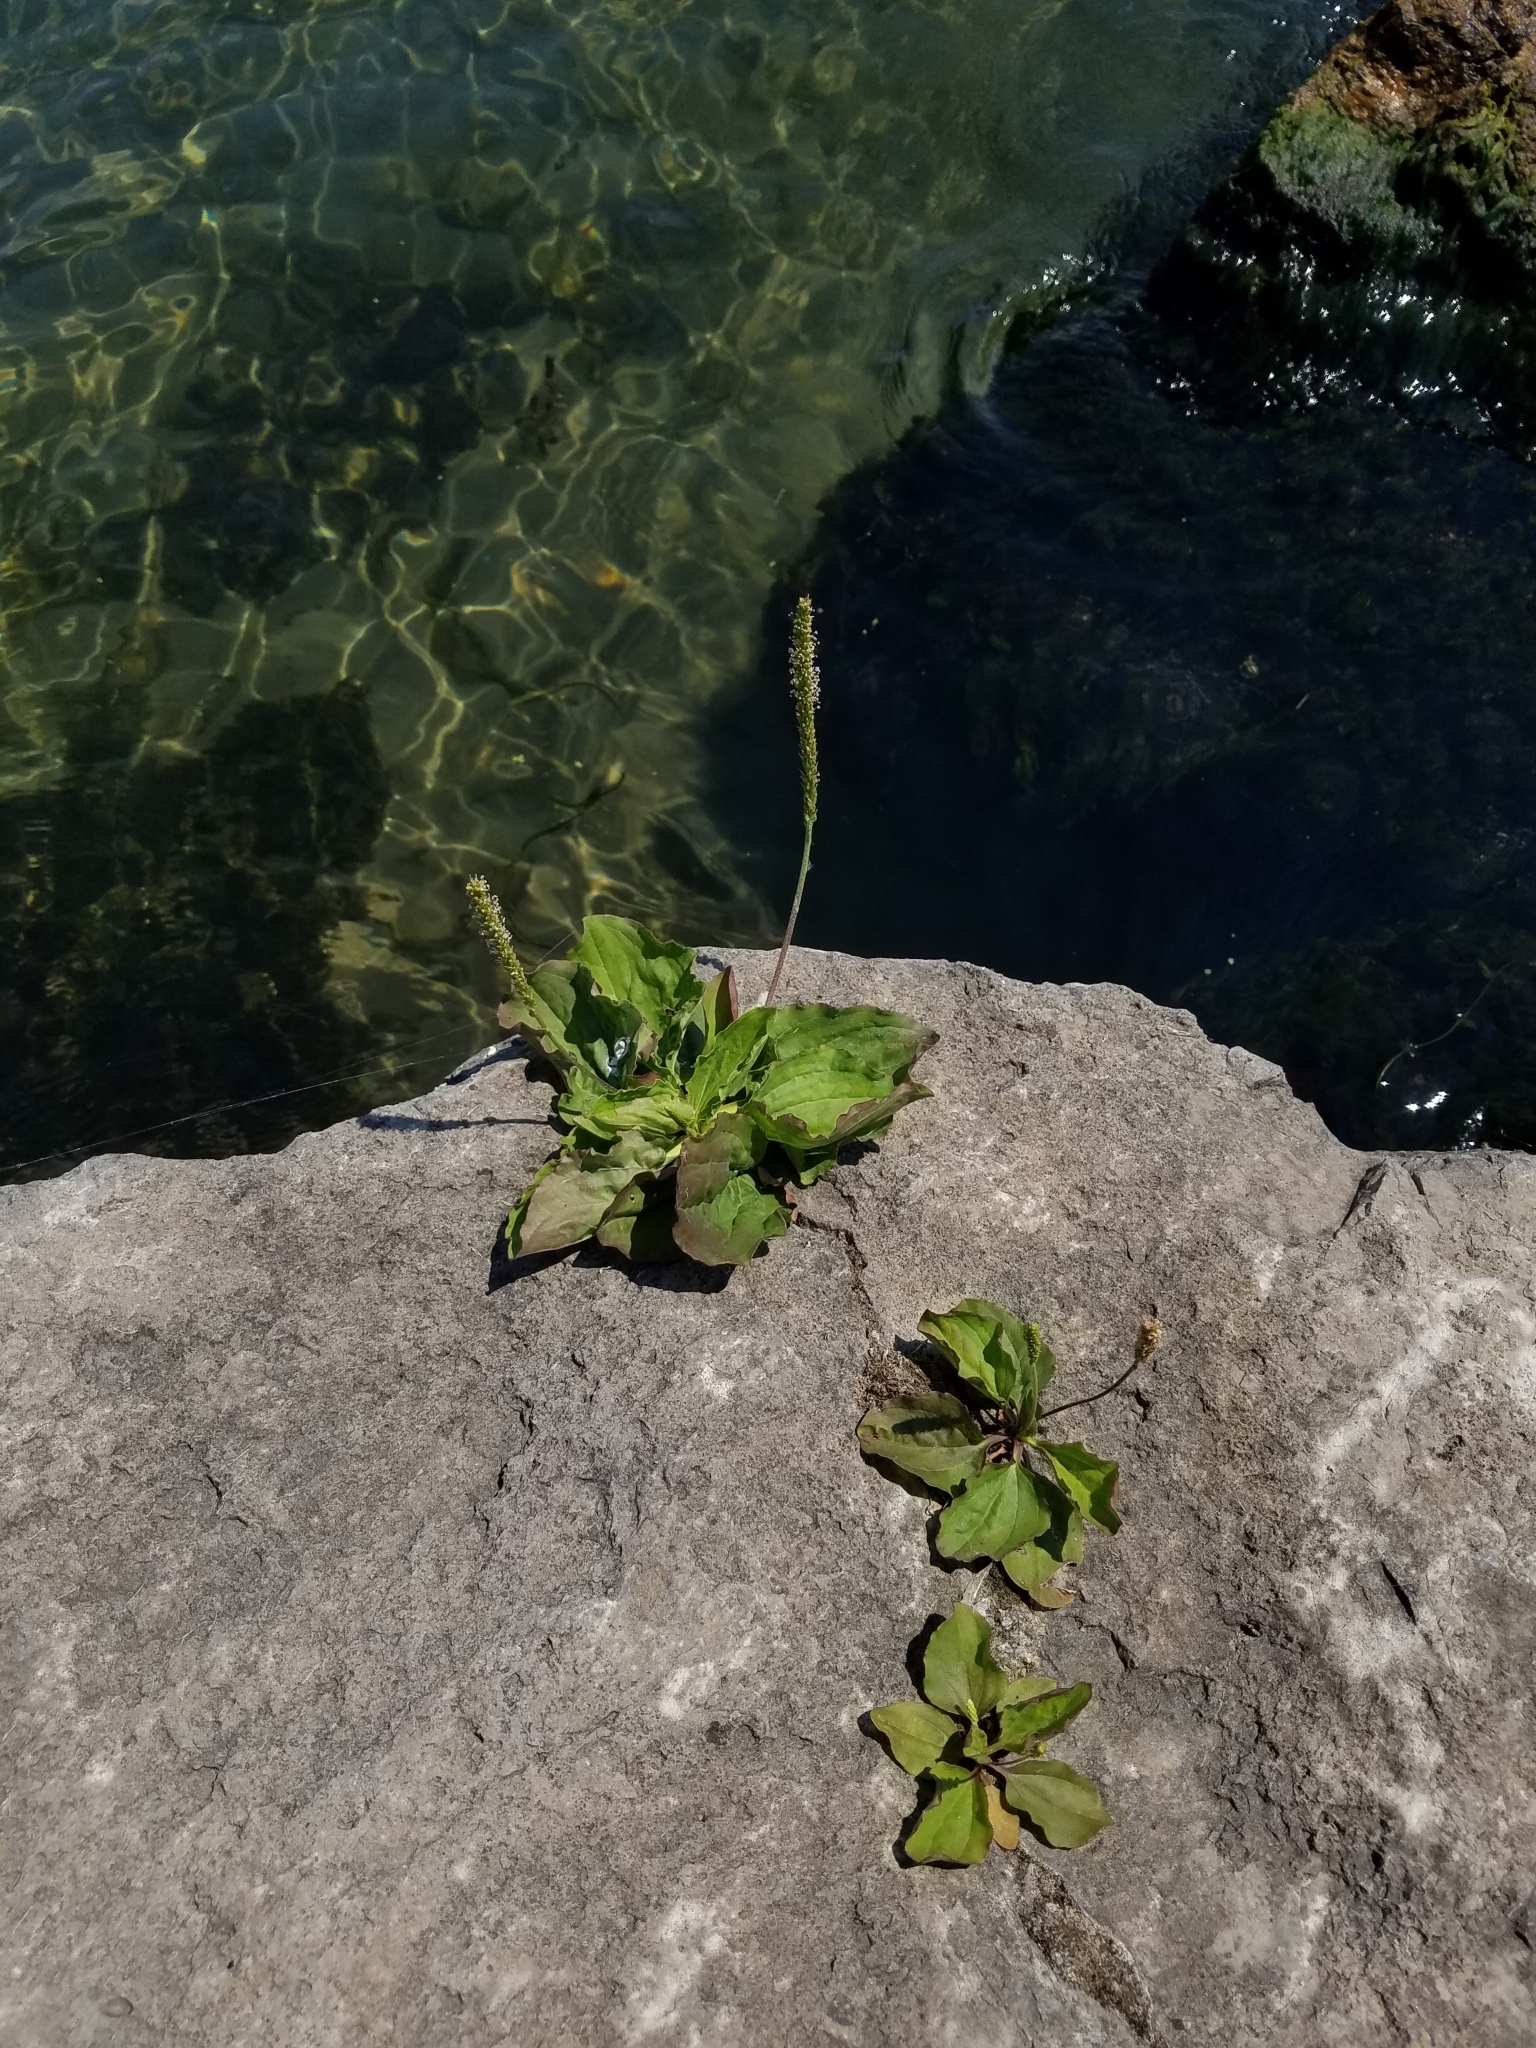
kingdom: Plantae
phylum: Tracheophyta
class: Magnoliopsida
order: Lamiales
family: Plantaginaceae
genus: Plantago
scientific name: Plantago rugelii
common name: American plantain
